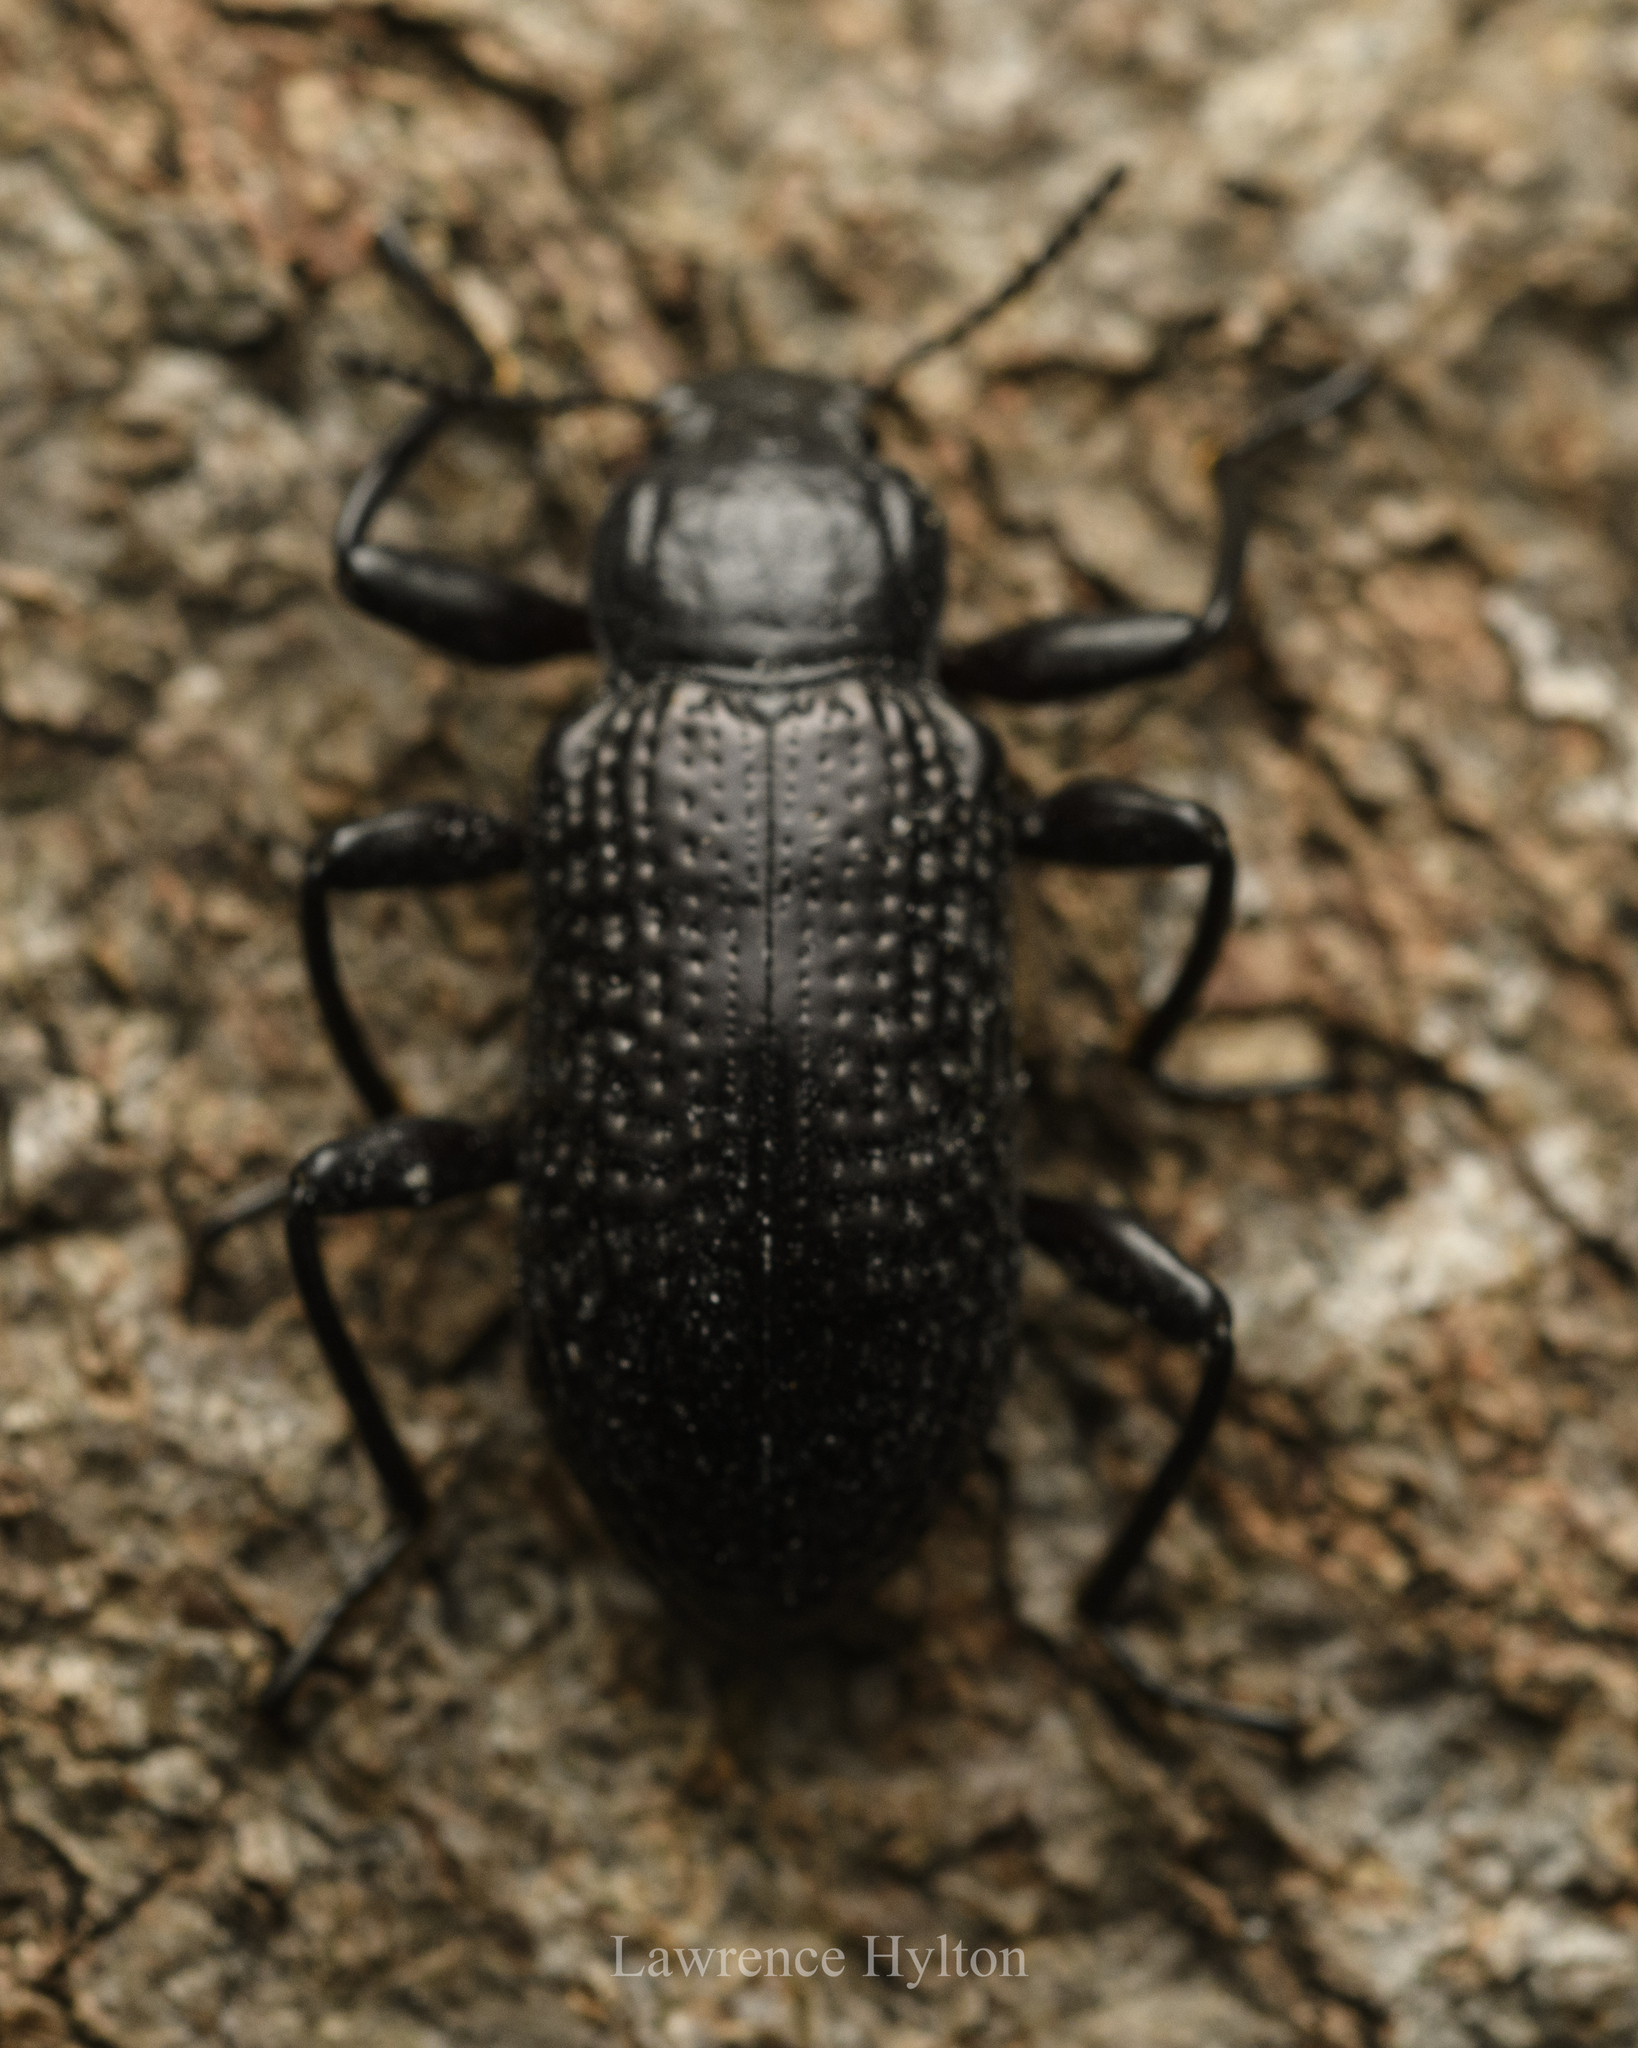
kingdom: Animalia
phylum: Arthropoda
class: Insecta
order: Coleoptera
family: Tenebrionidae
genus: Derosphaerus
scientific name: Derosphaerus sinensis
